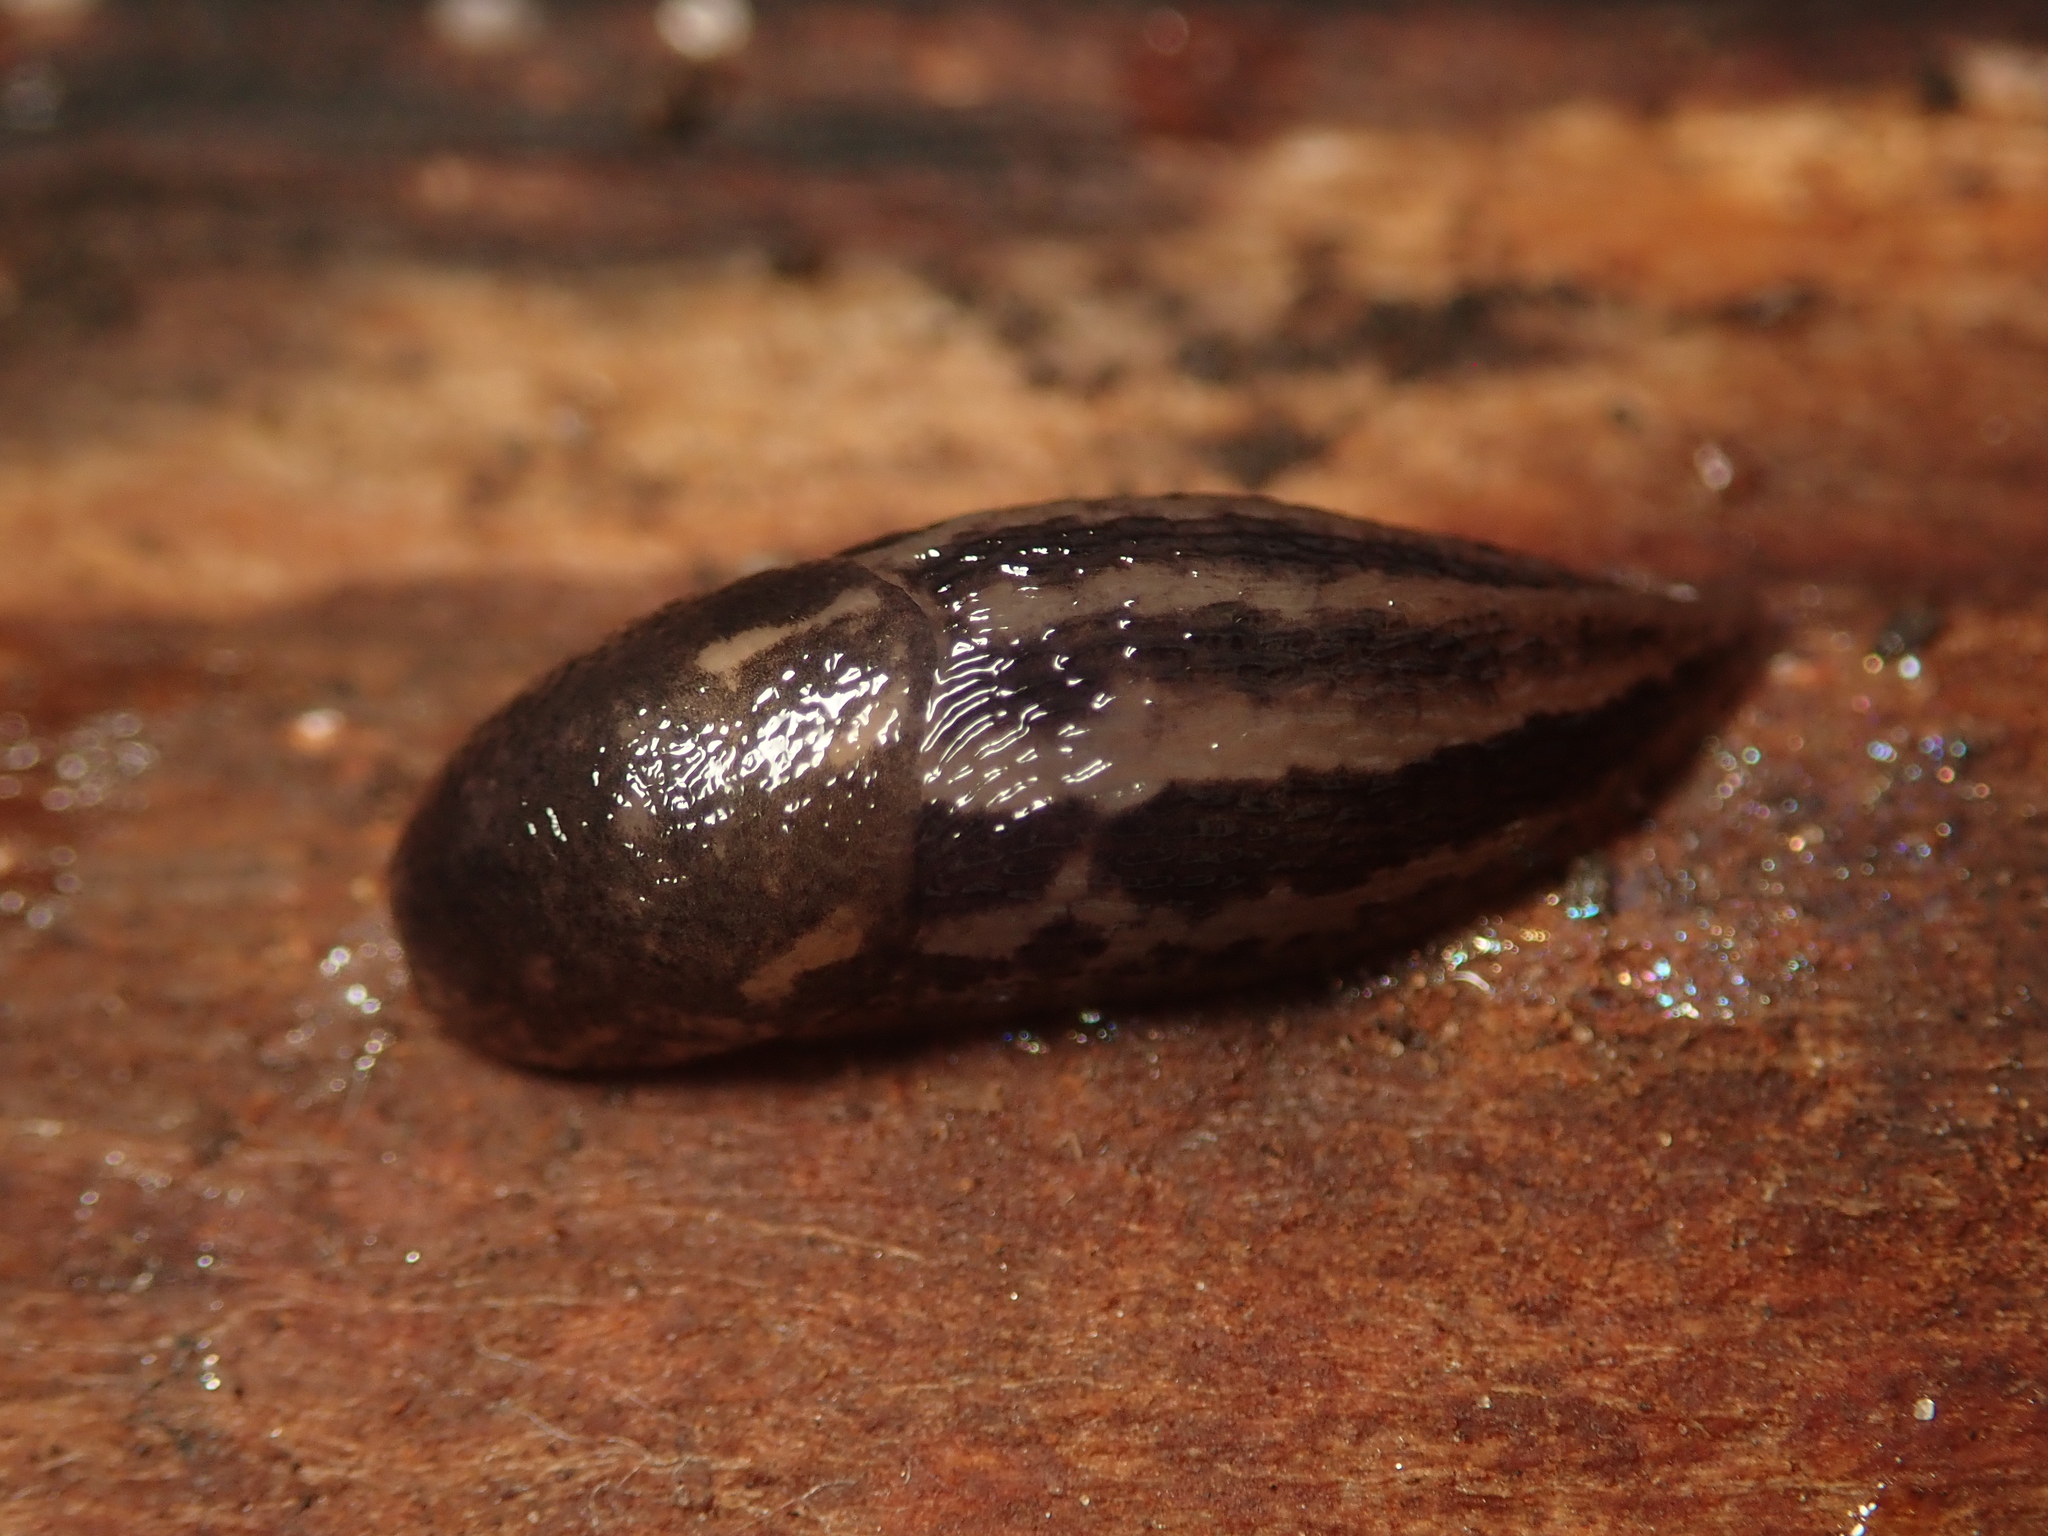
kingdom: Animalia
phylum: Mollusca
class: Gastropoda
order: Stylommatophora
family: Limacidae
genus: Limax
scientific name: Limax maximus
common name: Great grey slug
